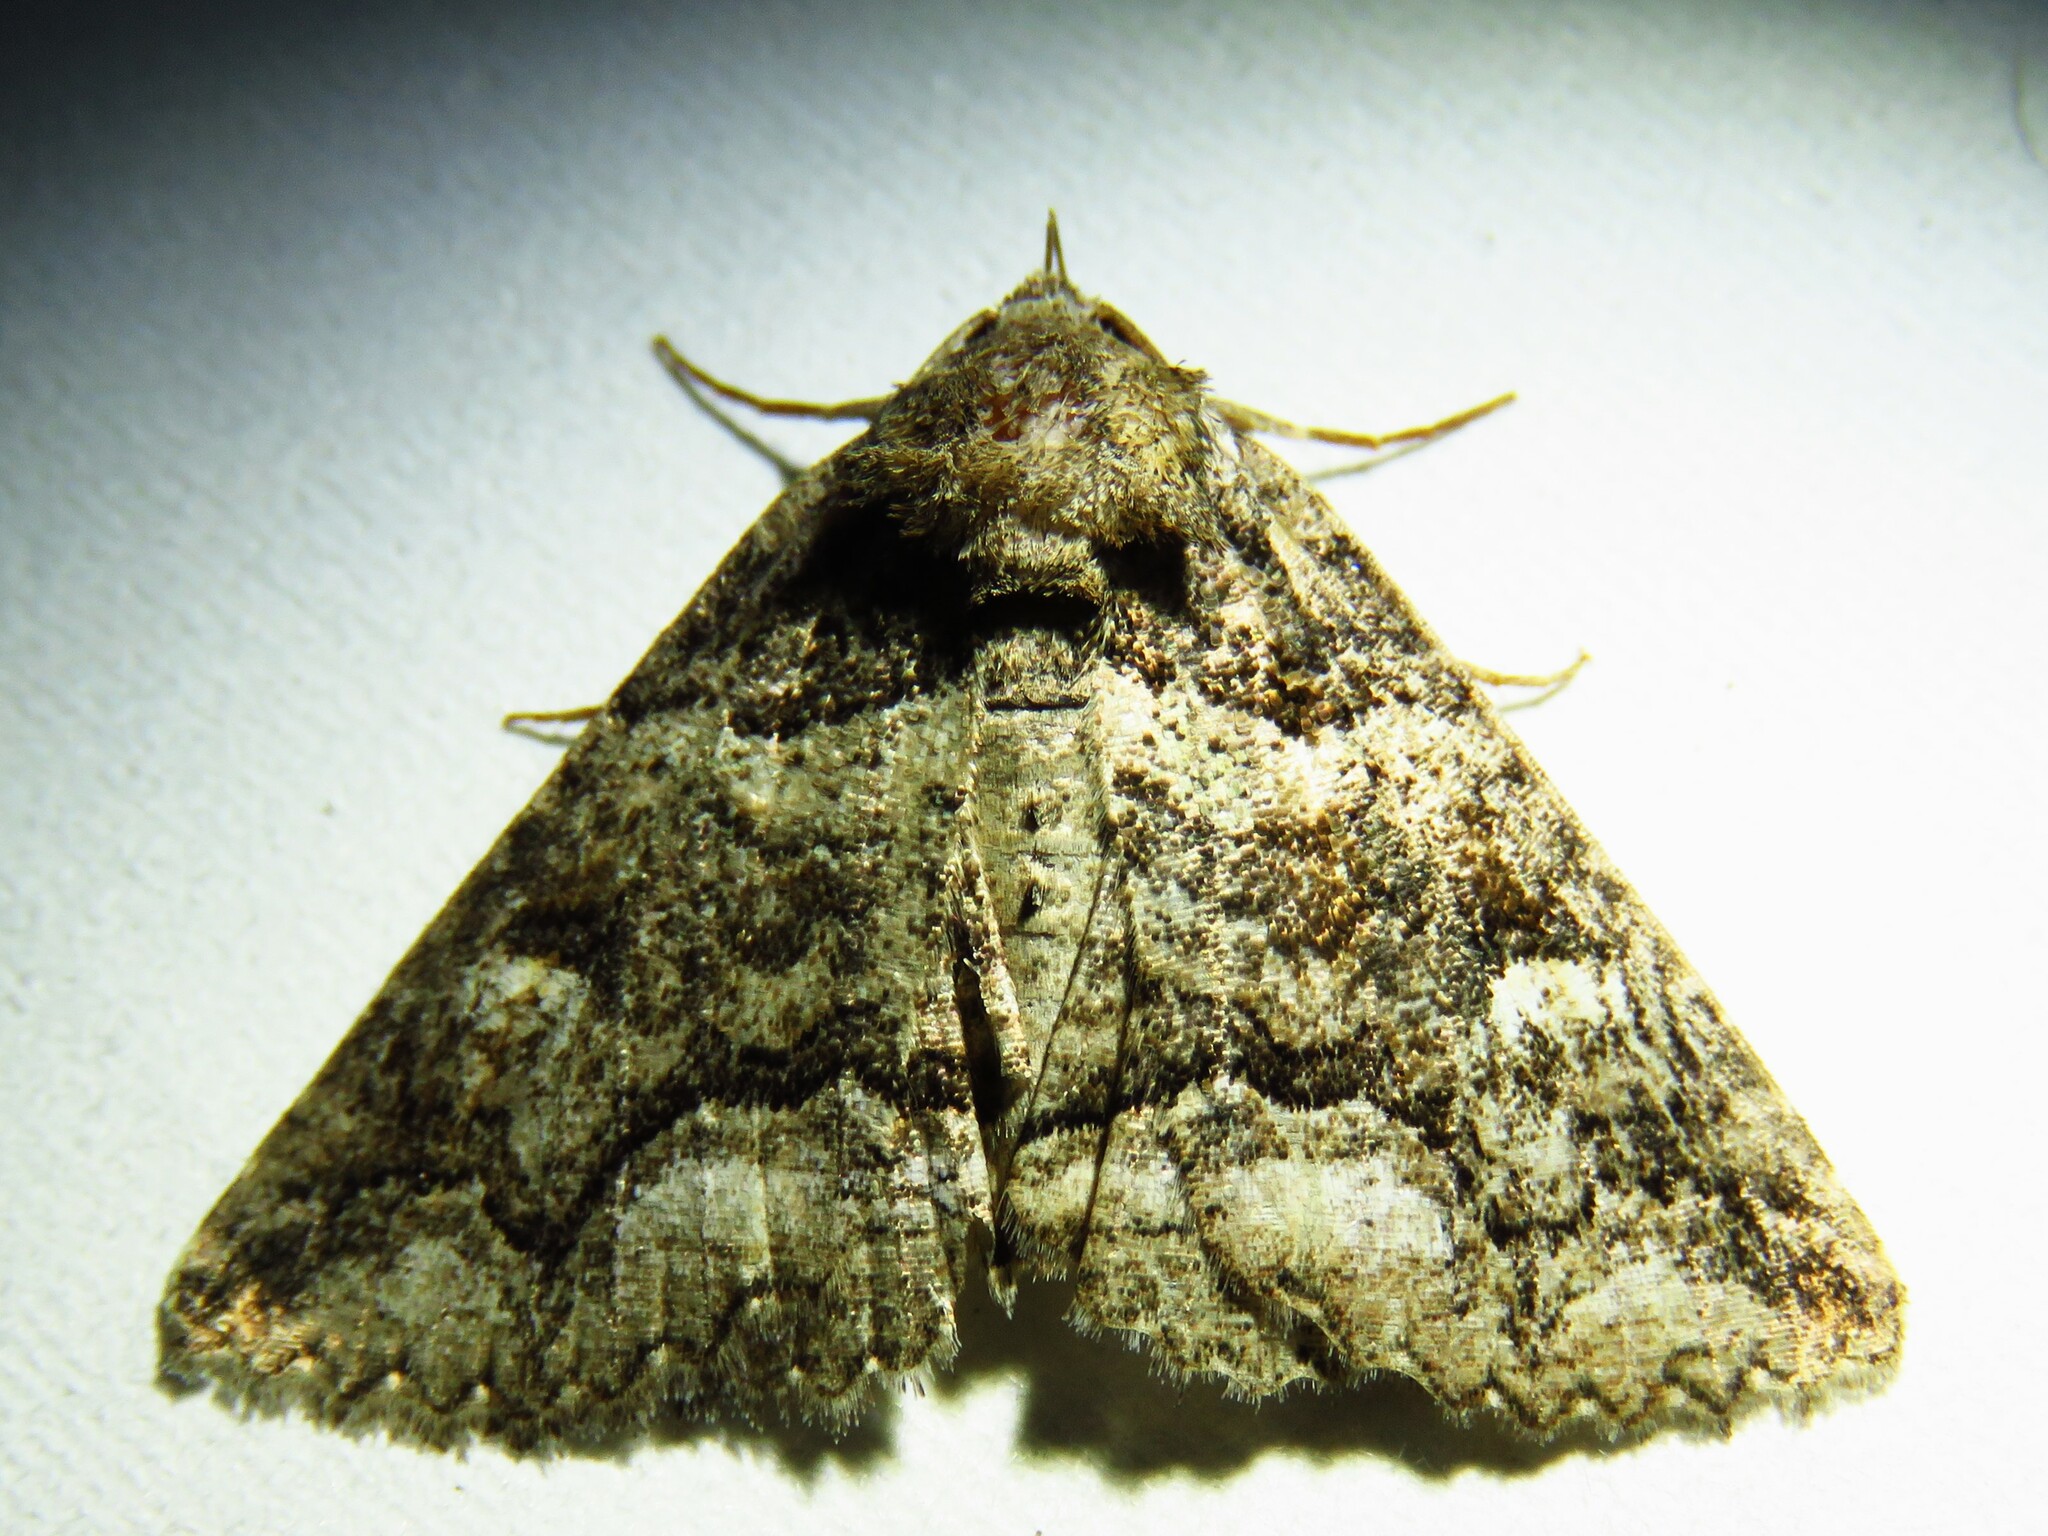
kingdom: Animalia
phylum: Arthropoda
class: Insecta
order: Lepidoptera
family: Erebidae
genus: Zale
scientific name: Zale calycanthata
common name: Double-banded zale
